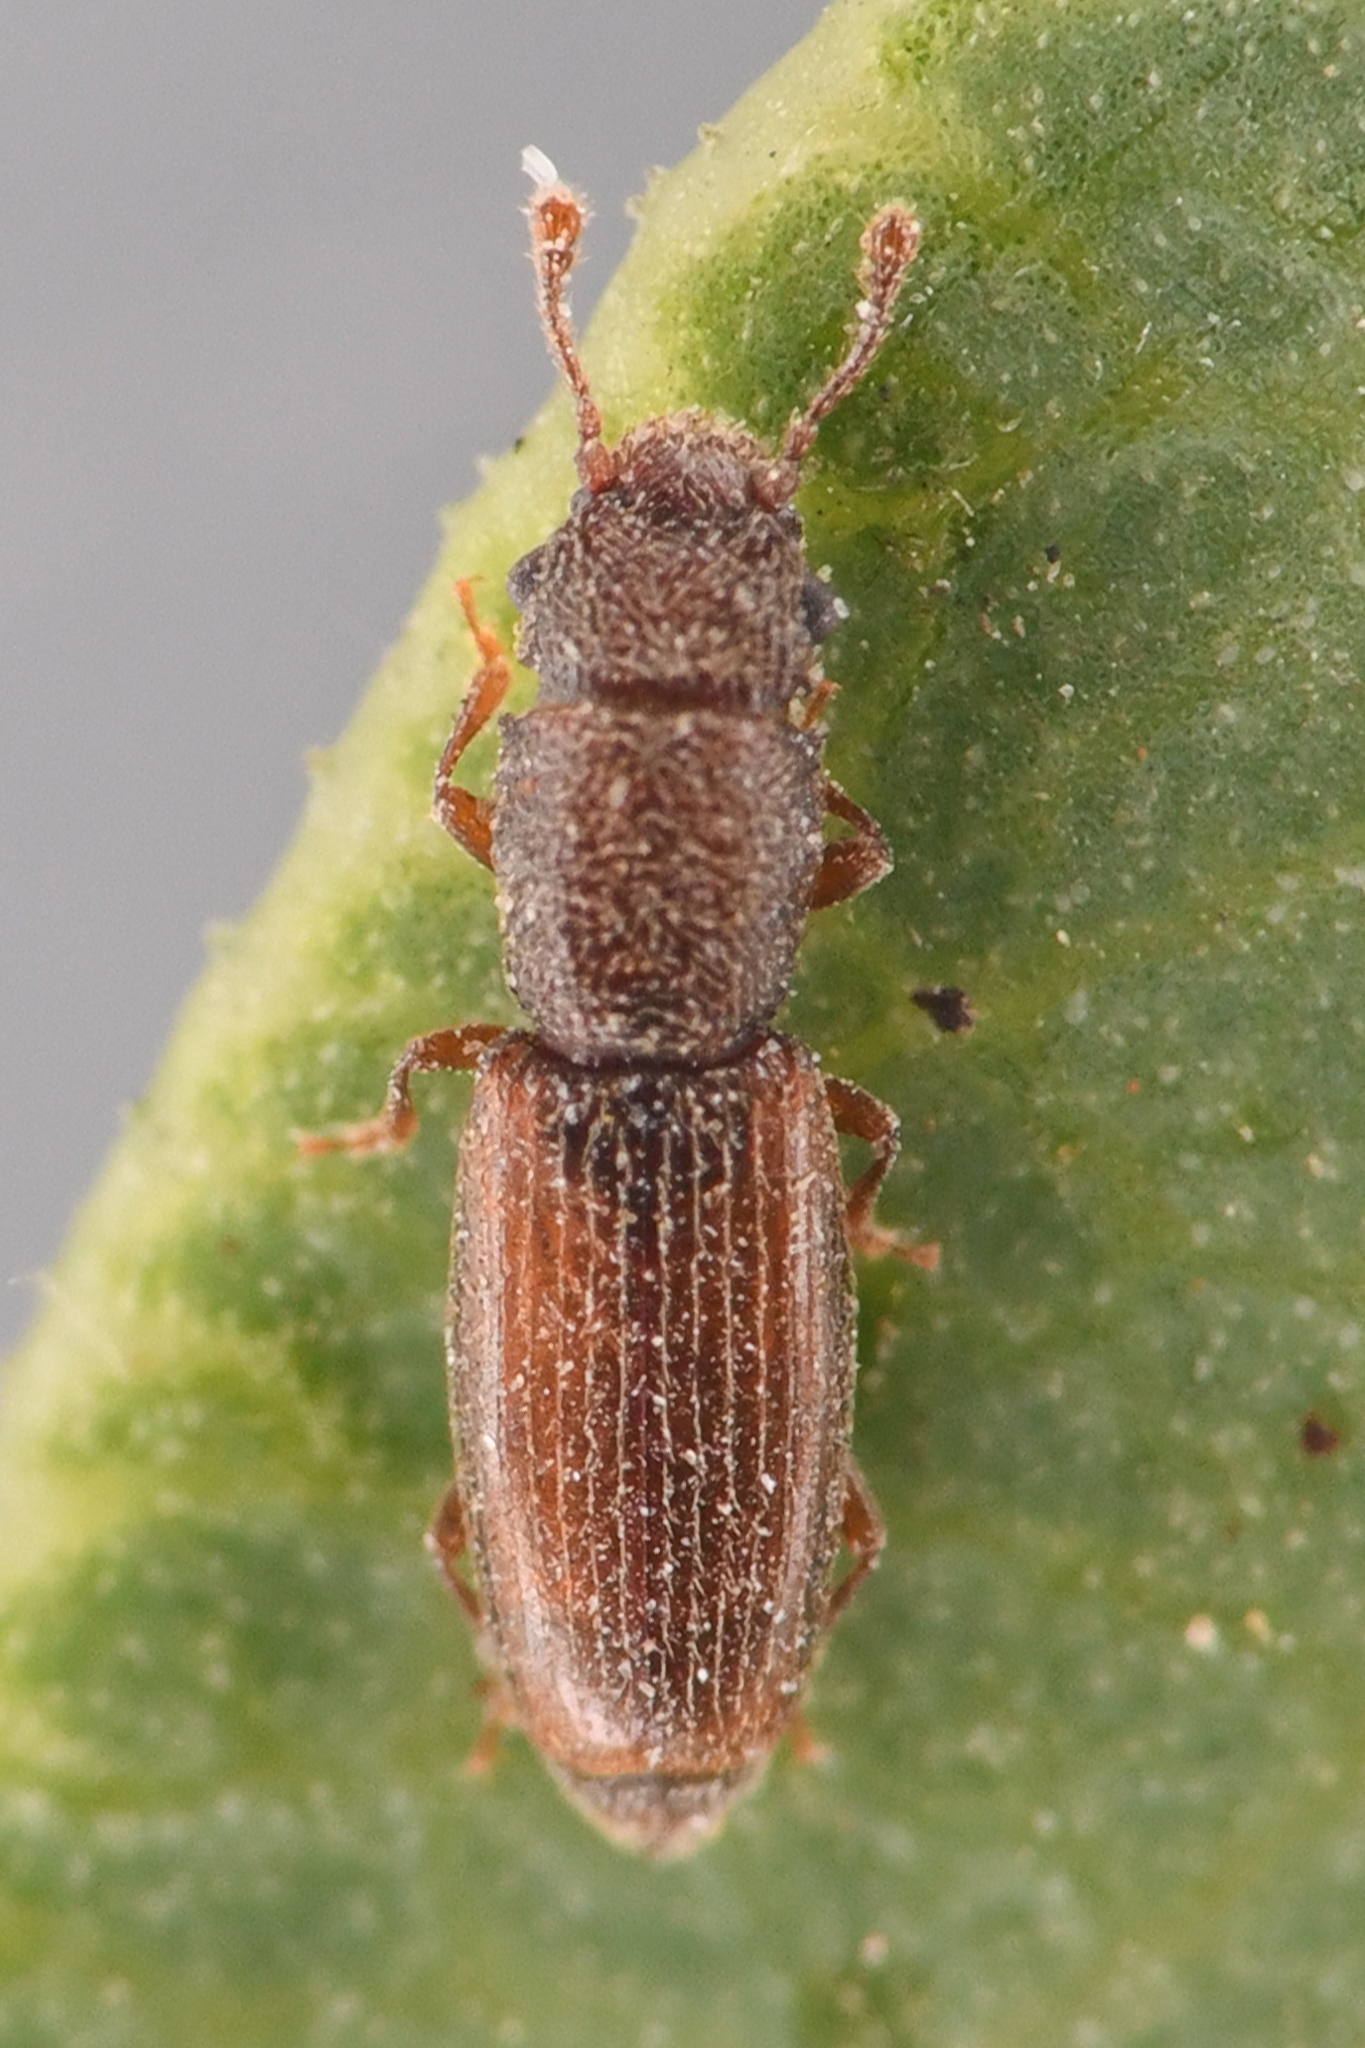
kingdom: Animalia
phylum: Arthropoda
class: Insecta
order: Coleoptera
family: Monotomidae
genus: Hesperobaenus
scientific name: Hesperobaenus abbreviatus
